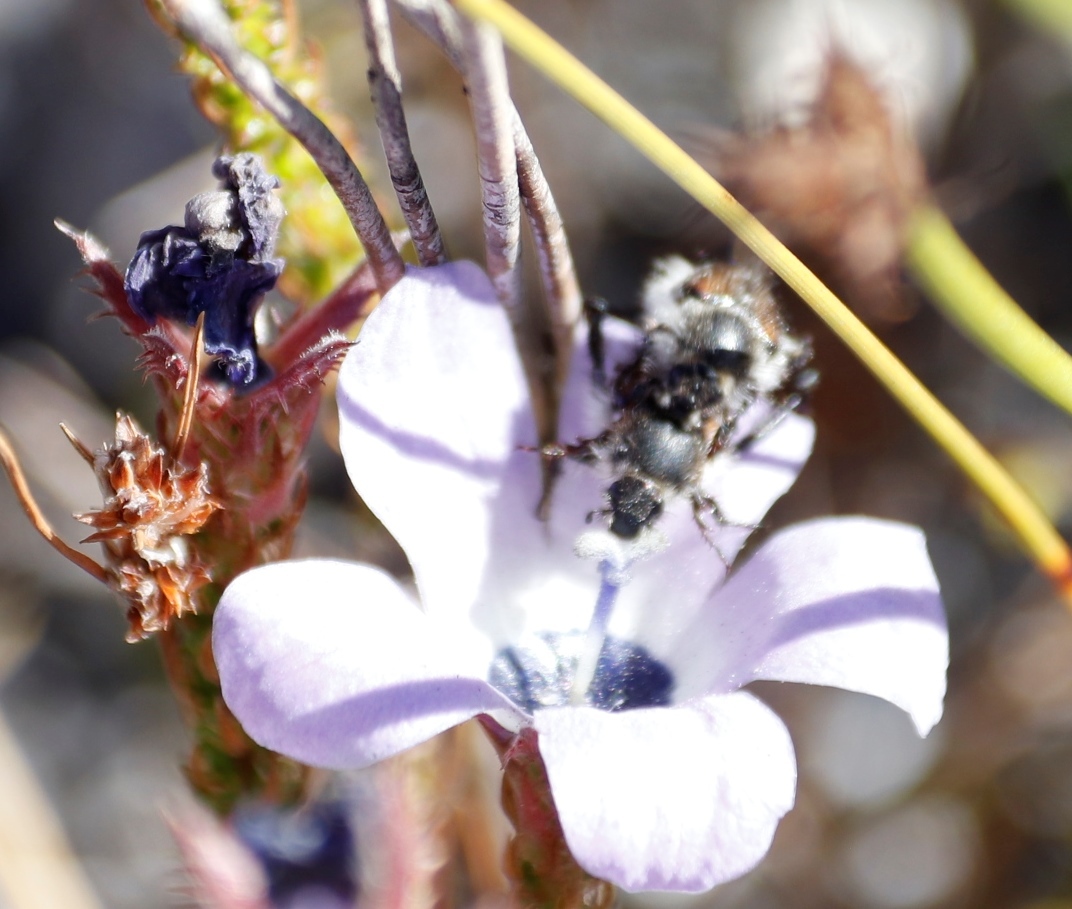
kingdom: Plantae
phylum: Tracheophyta
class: Magnoliopsida
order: Asterales
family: Campanulaceae
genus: Roella
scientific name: Roella triflora
